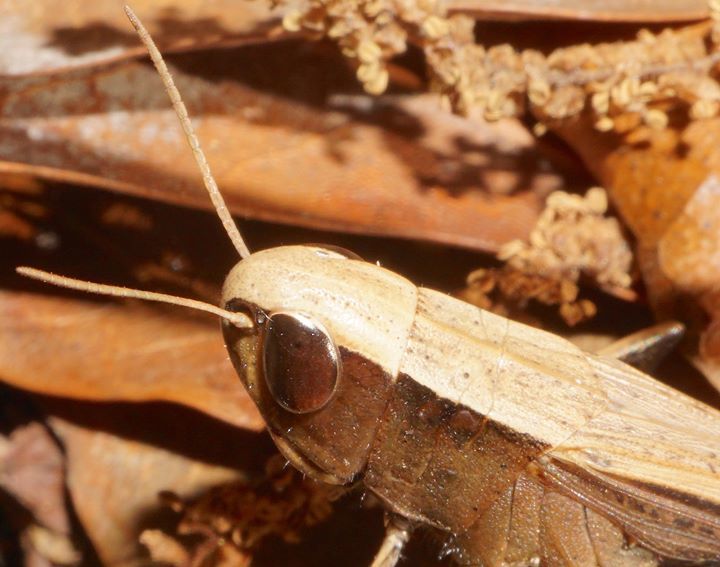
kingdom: Animalia
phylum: Arthropoda
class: Insecta
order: Orthoptera
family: Acrididae
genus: Amblytropidia
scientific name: Amblytropidia mysteca
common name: Brown winter grasshopper
